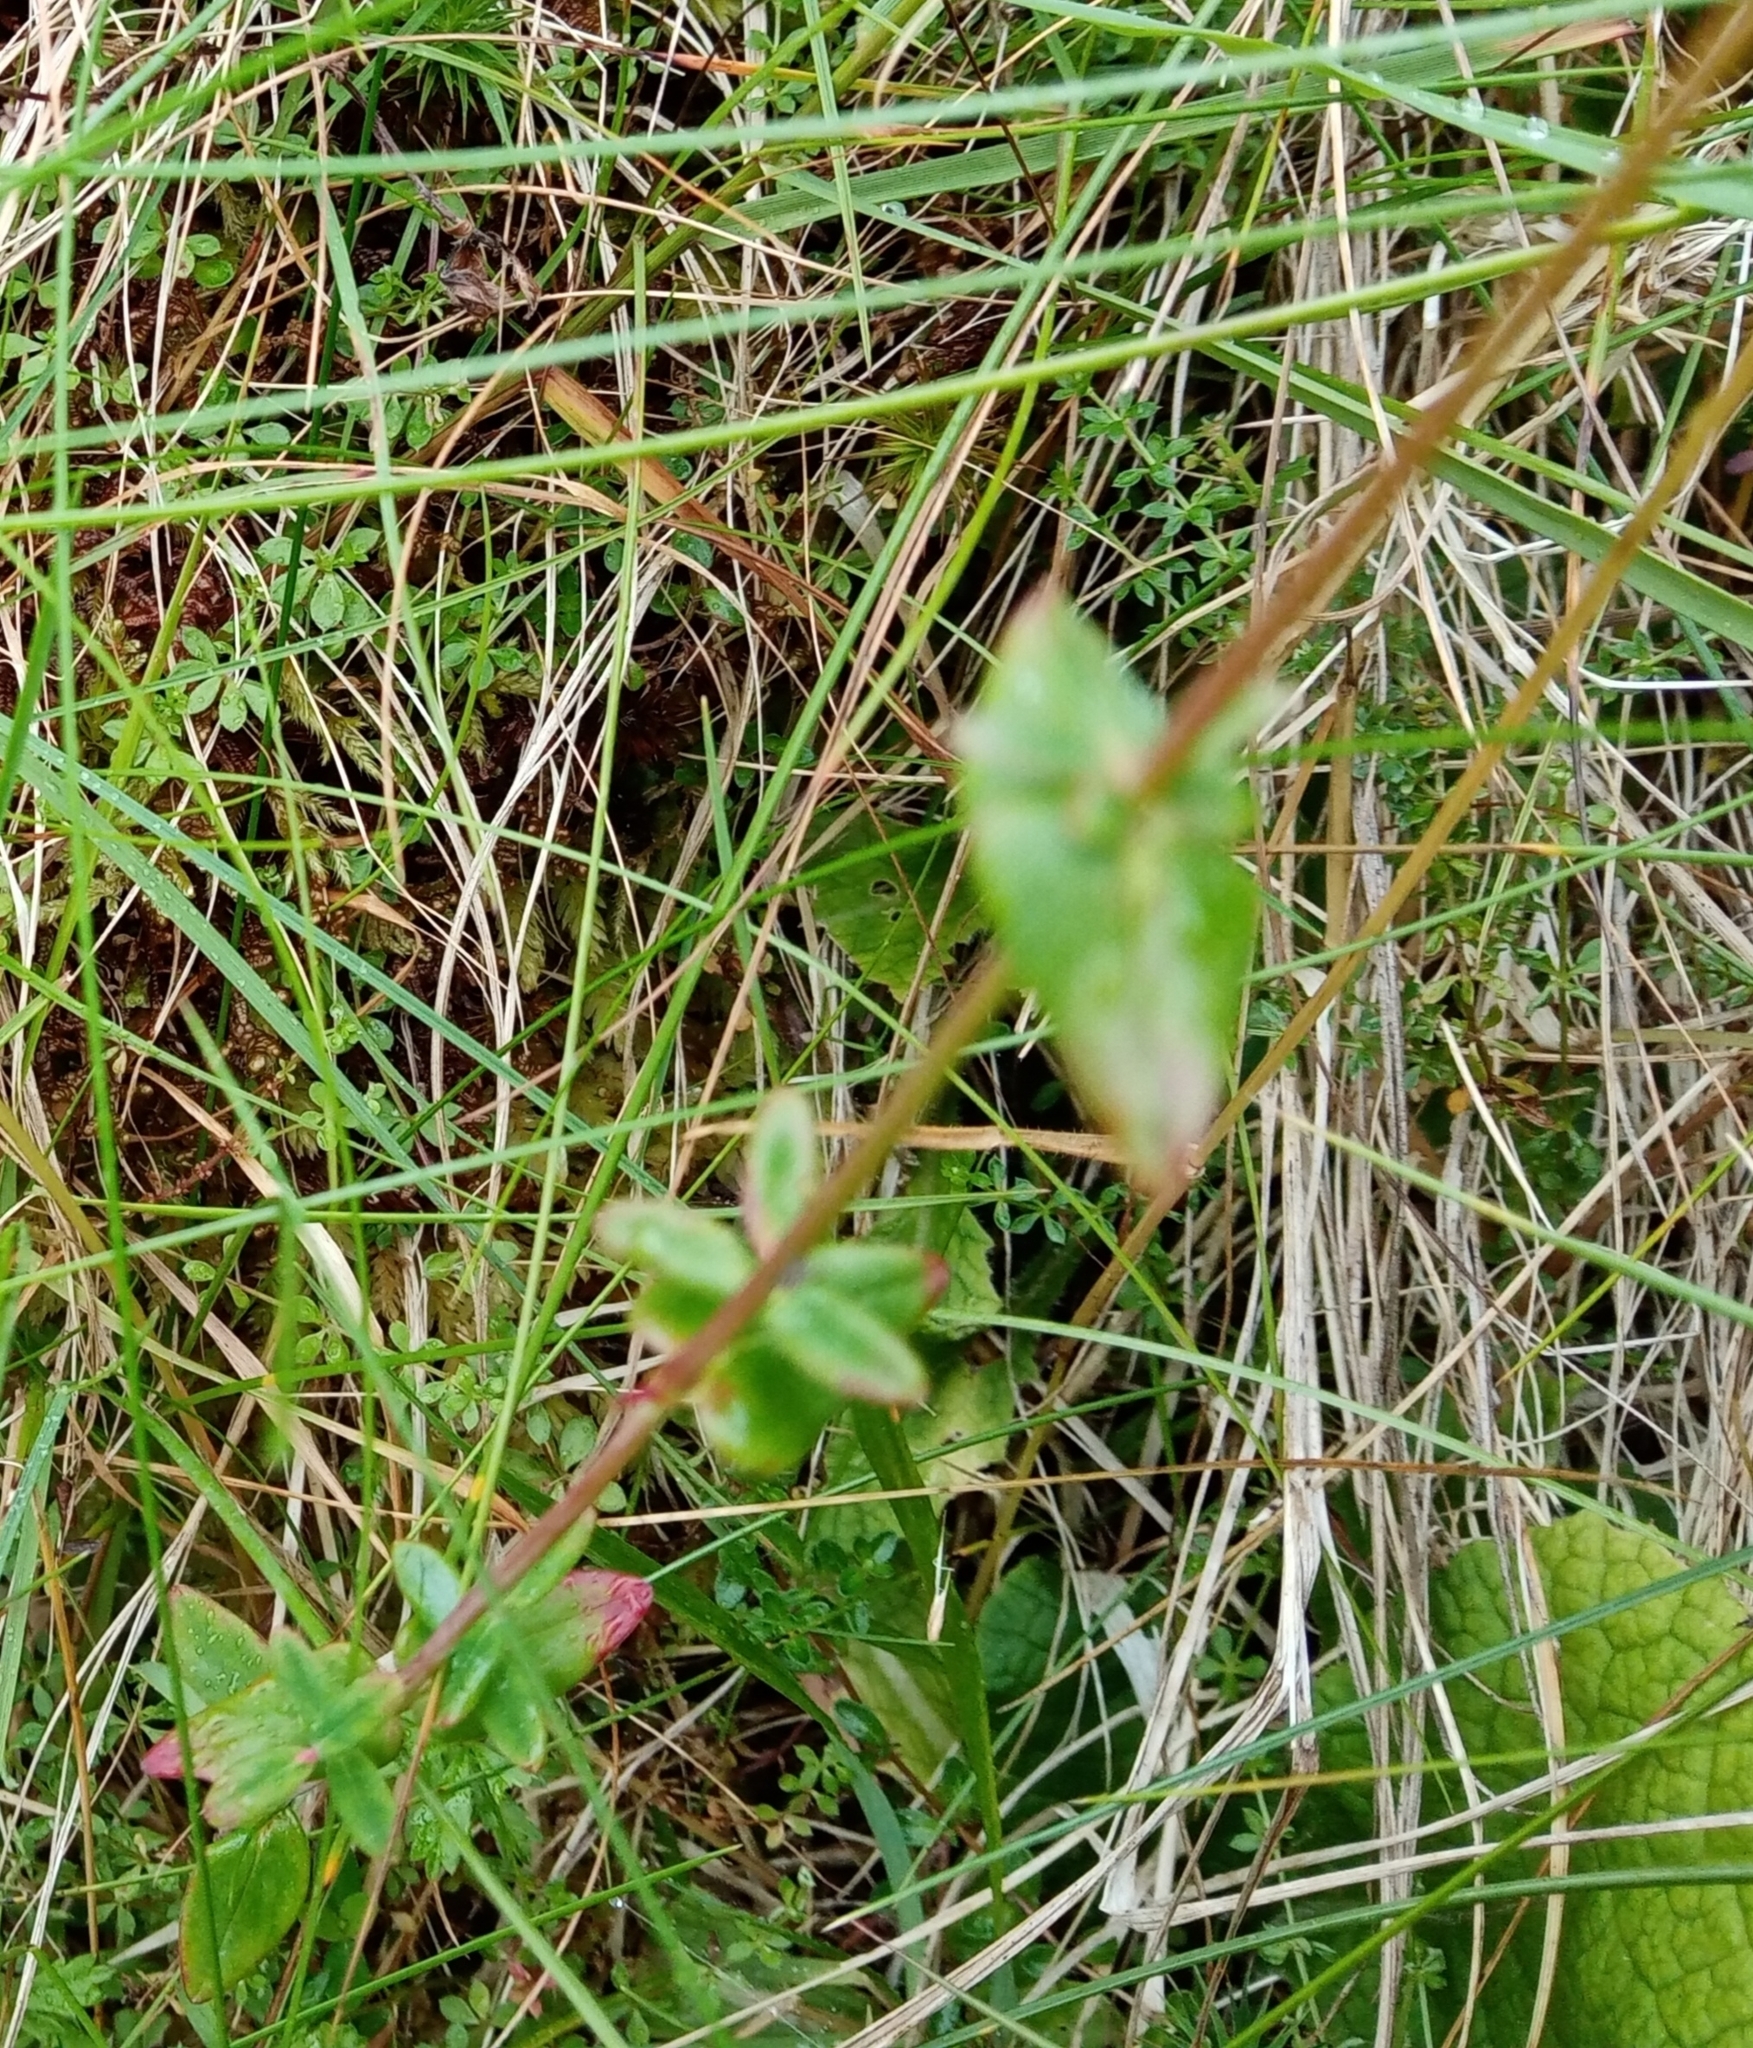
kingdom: Plantae
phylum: Tracheophyta
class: Magnoliopsida
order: Malpighiales
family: Hypericaceae
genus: Hypericum
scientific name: Hypericum pulchrum
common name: Slender st. john's-wort
